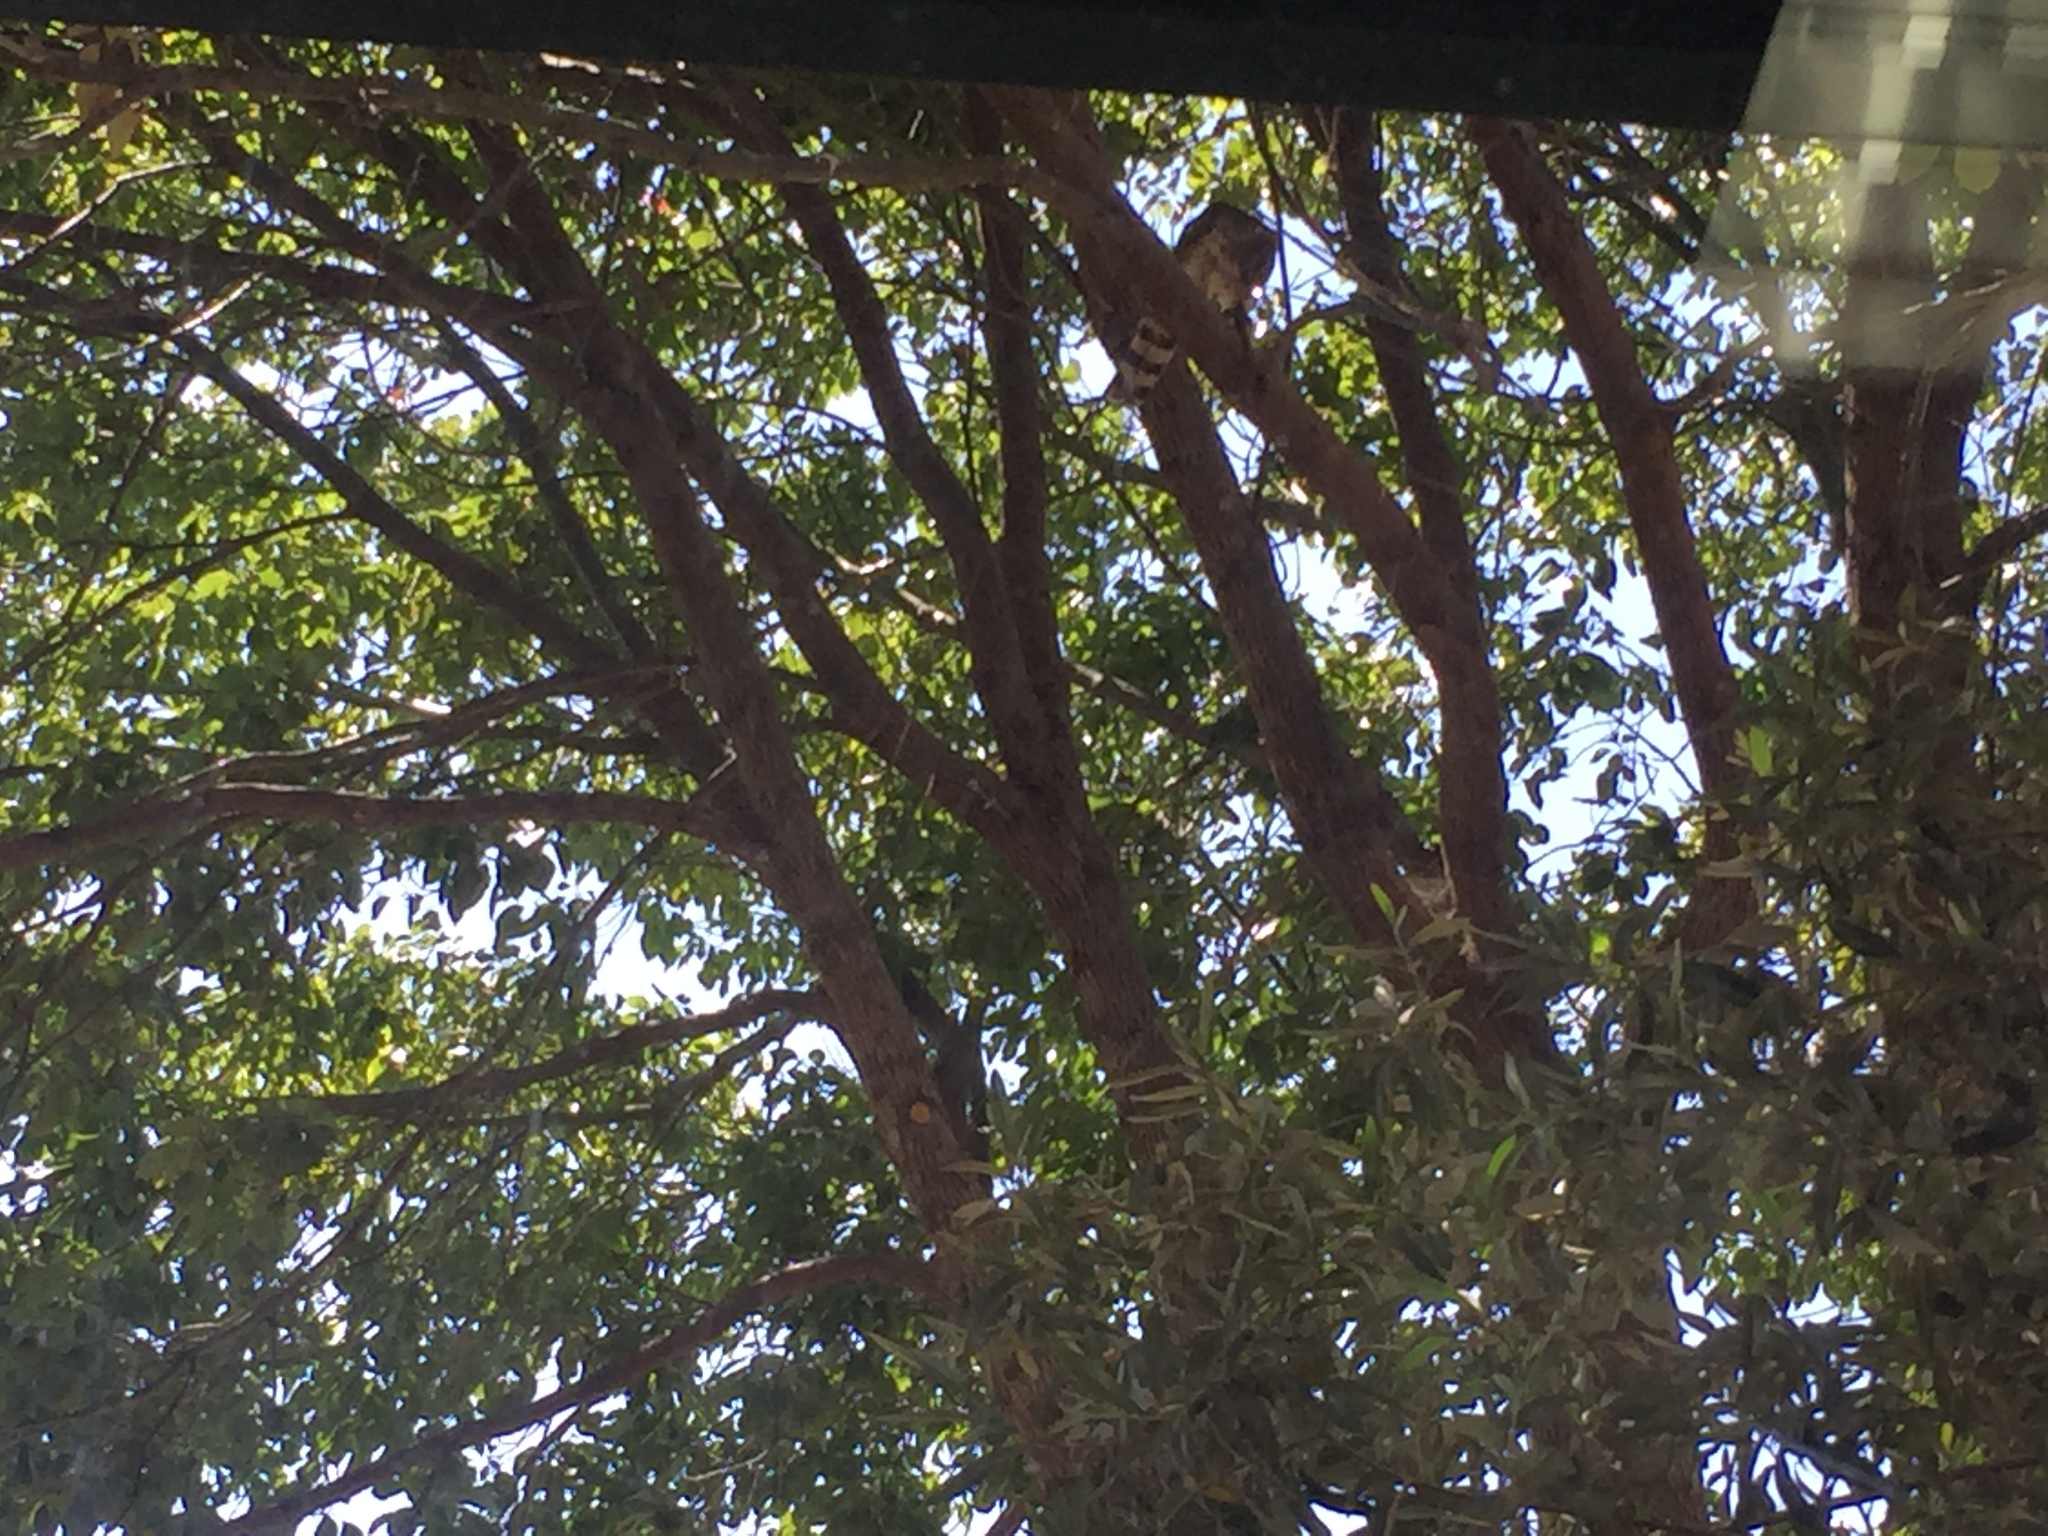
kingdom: Animalia
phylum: Chordata
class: Aves
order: Accipitriformes
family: Accipitridae
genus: Accipiter
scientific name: Accipiter cooperii
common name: Cooper's hawk
